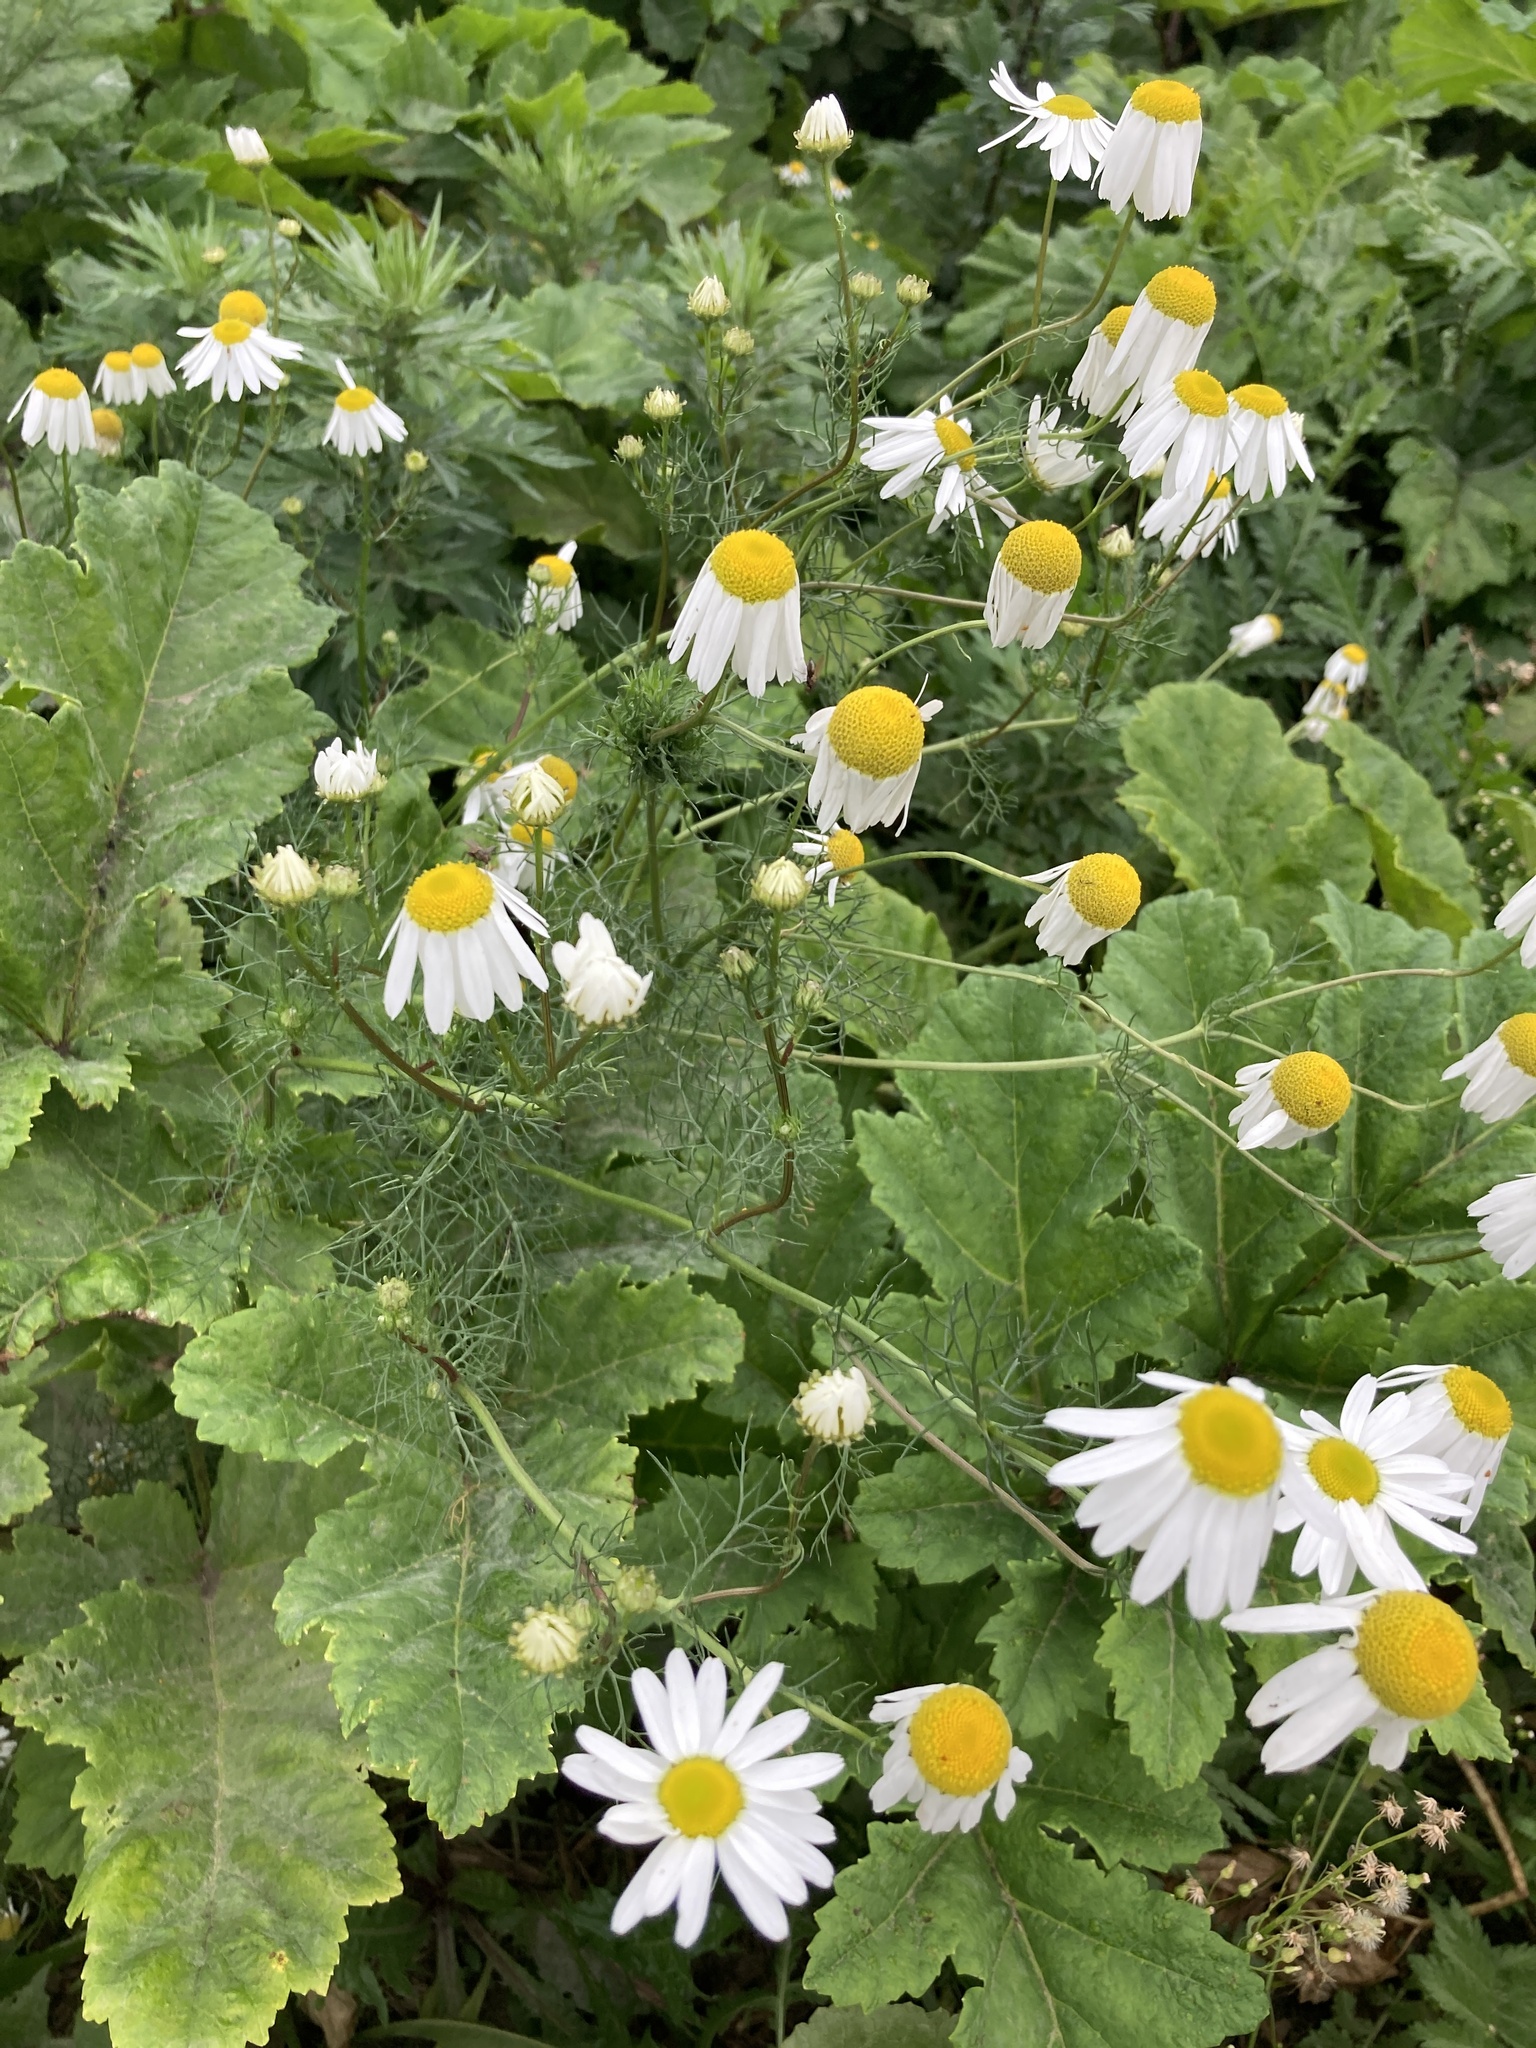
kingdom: Plantae
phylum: Tracheophyta
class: Magnoliopsida
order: Asterales
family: Asteraceae
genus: Tripleurospermum
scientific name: Tripleurospermum inodorum
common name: Scentless mayweed
